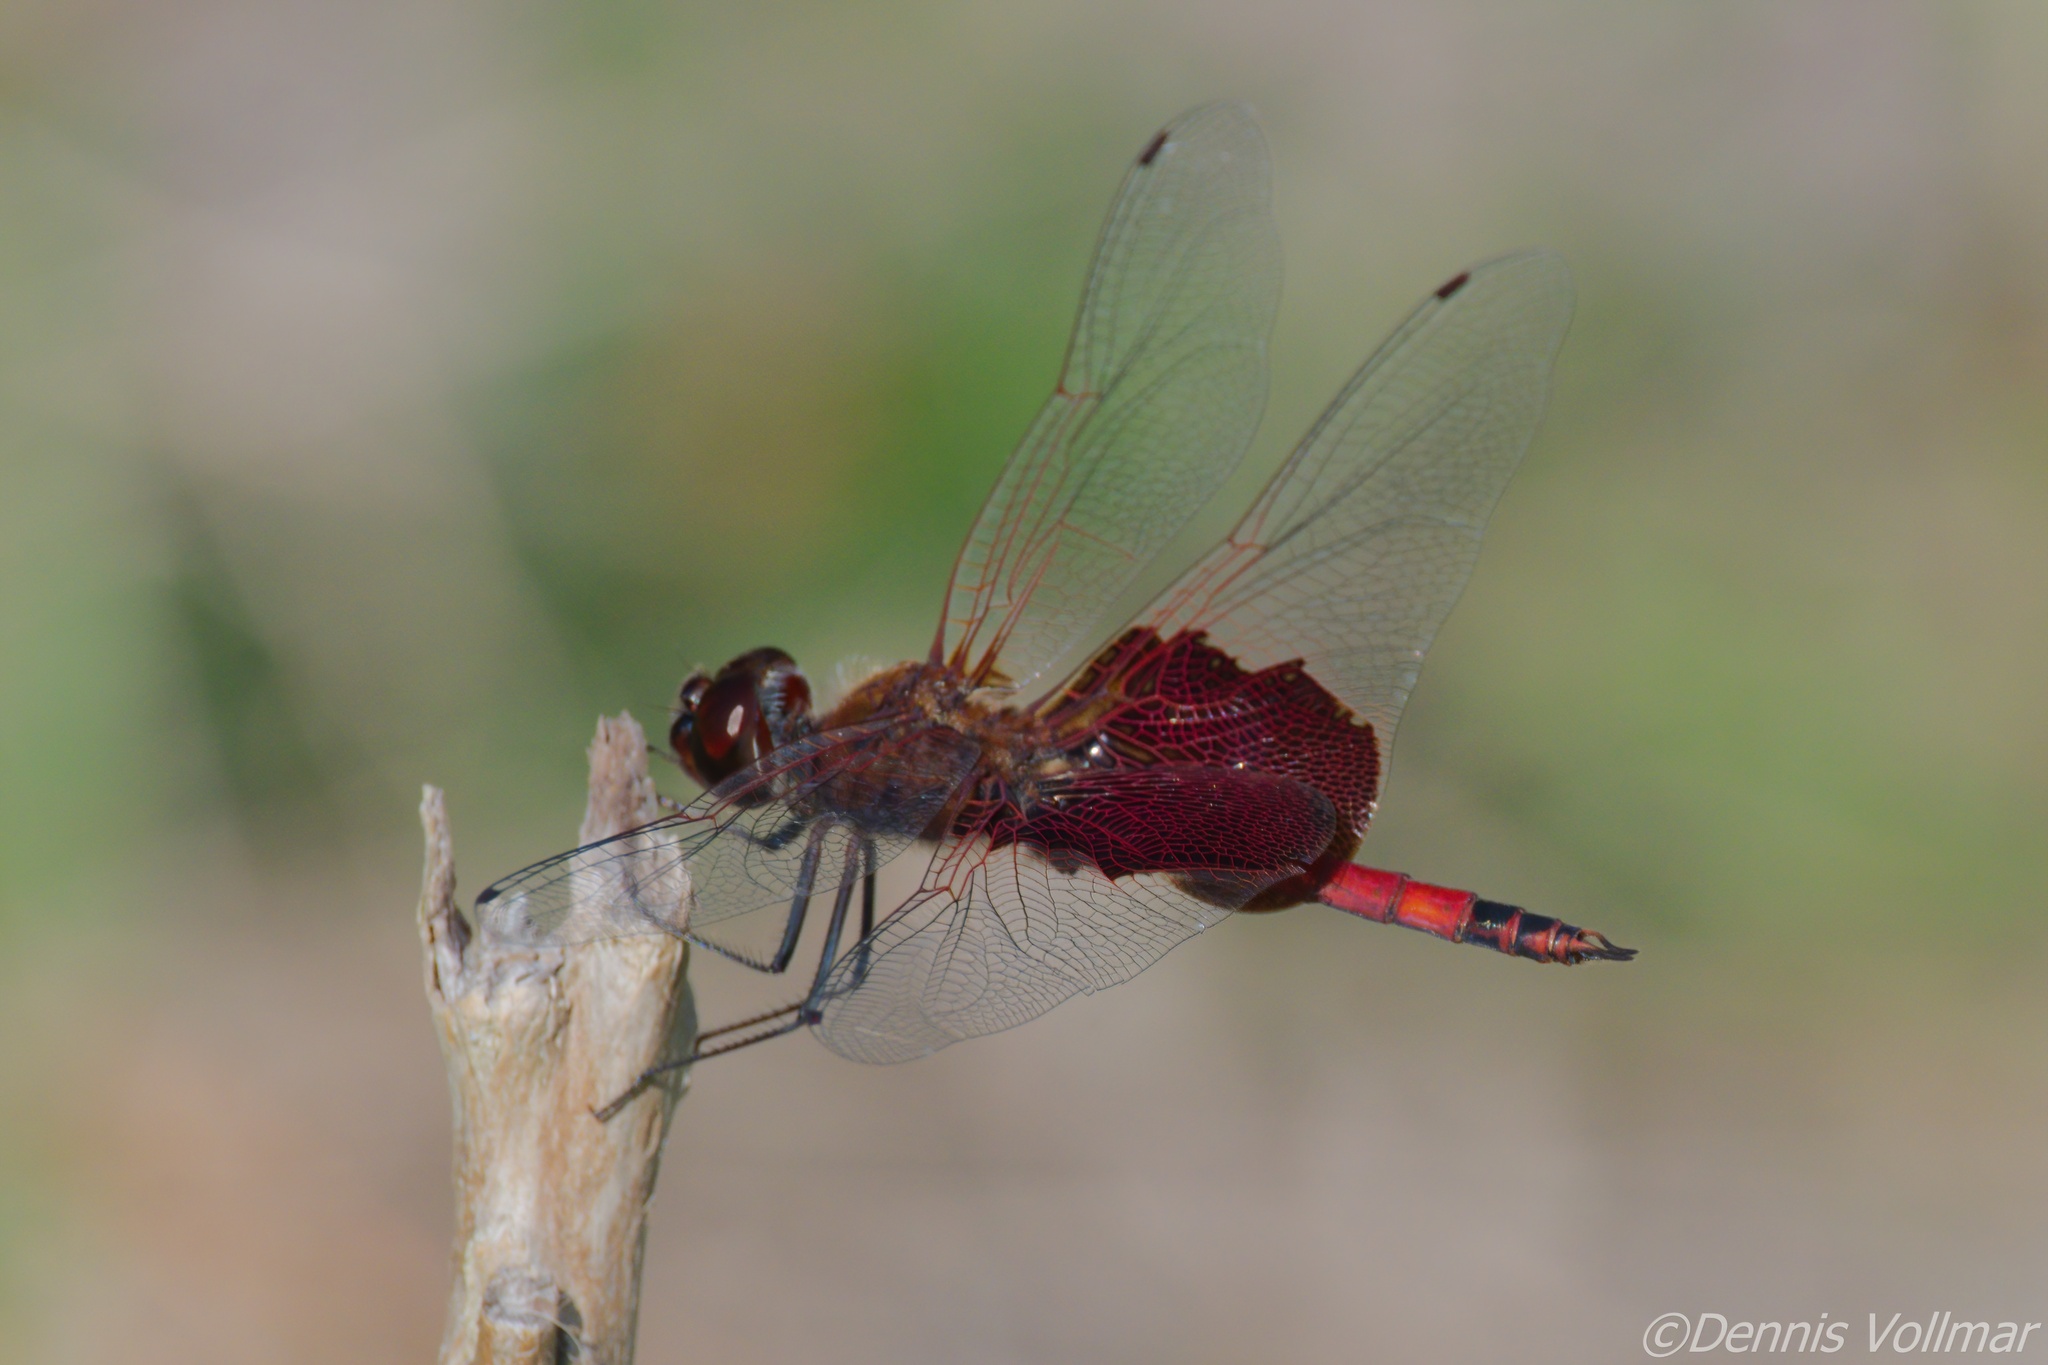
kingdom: Animalia
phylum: Arthropoda
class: Insecta
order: Odonata
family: Libellulidae
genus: Tramea
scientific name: Tramea carolina
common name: Carolina saddlebags
